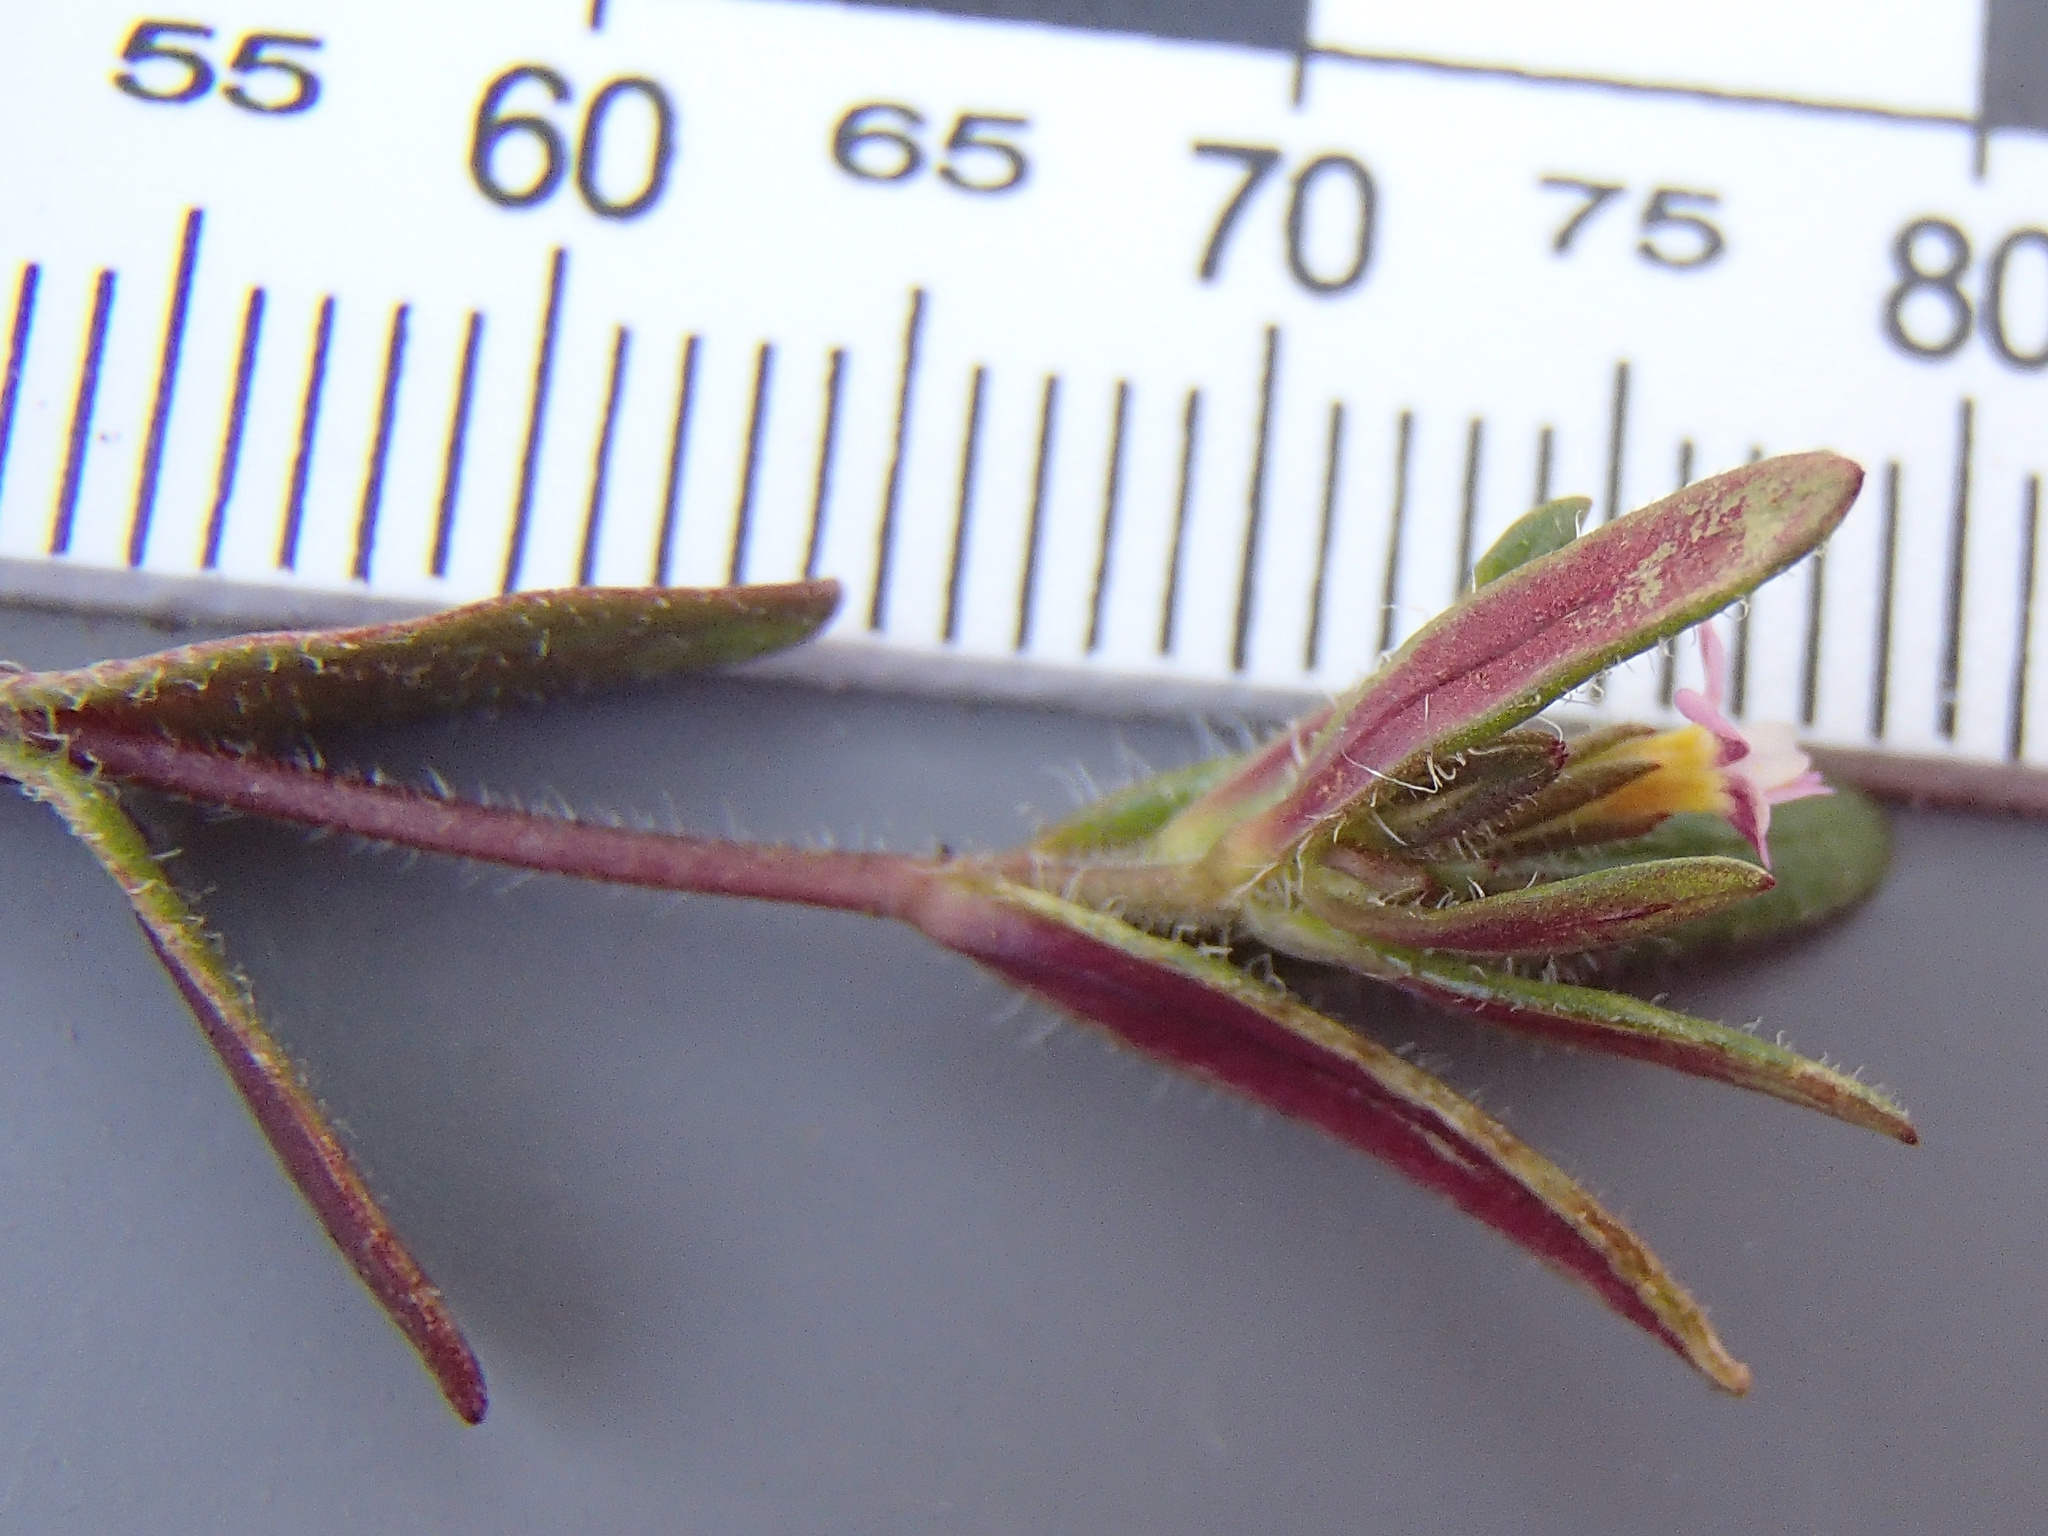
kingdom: Plantae
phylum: Tracheophyta
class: Magnoliopsida
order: Ericales
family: Polemoniaceae
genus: Phlox
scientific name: Phlox gracilis
